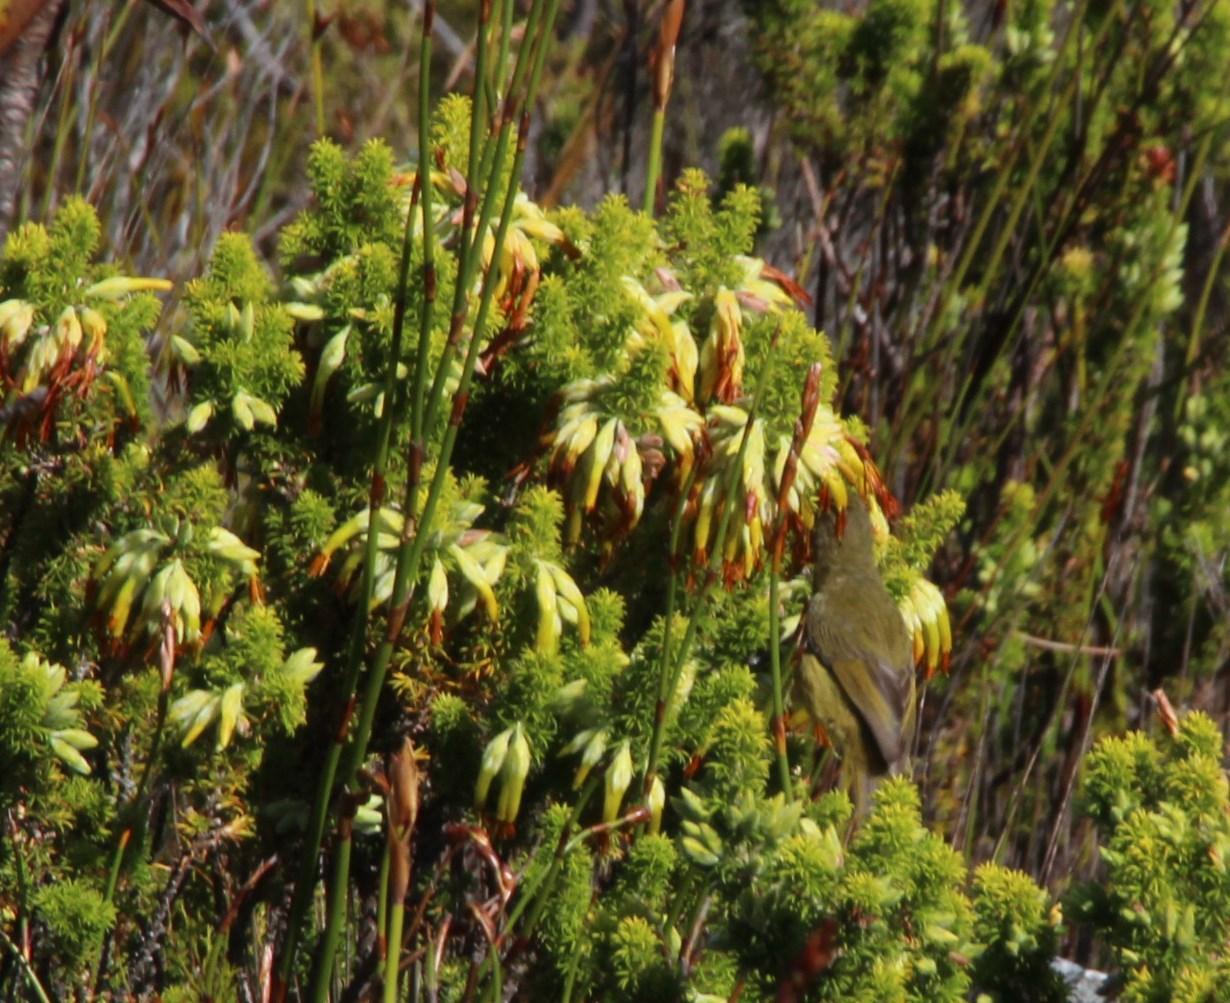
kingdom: Plantae
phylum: Tracheophyta
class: Magnoliopsida
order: Ericales
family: Ericaceae
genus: Erica
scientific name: Erica coccinea
